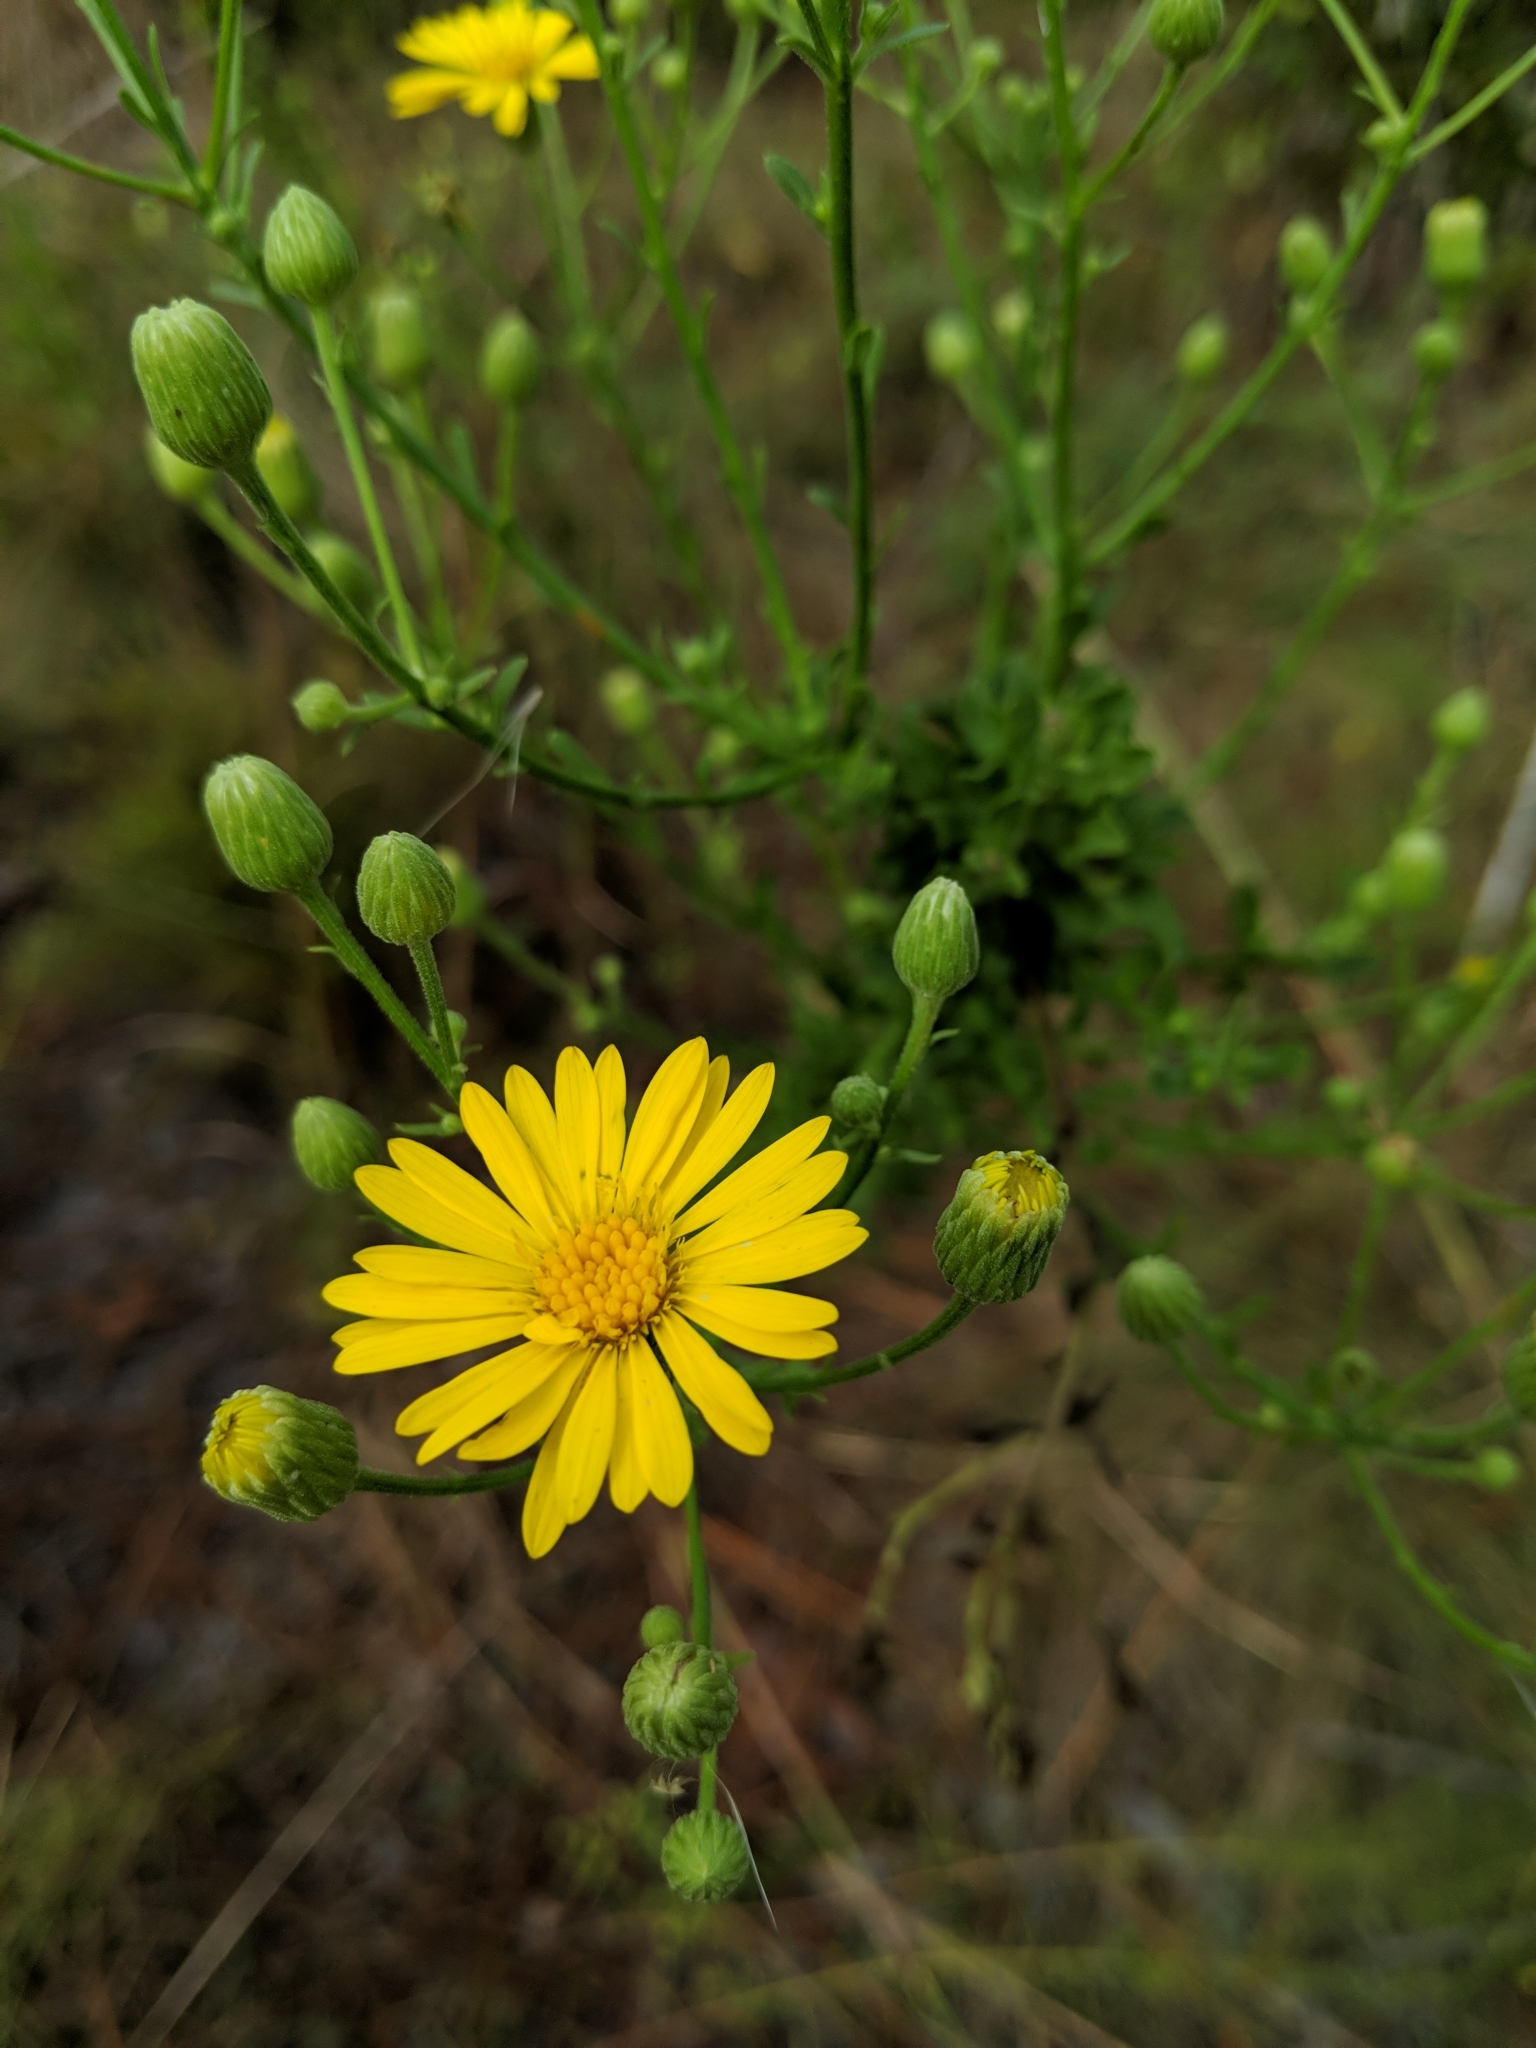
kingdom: Plantae
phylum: Tracheophyta
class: Magnoliopsida
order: Asterales
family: Asteraceae
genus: Chrysopsis
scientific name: Chrysopsis scabrella
